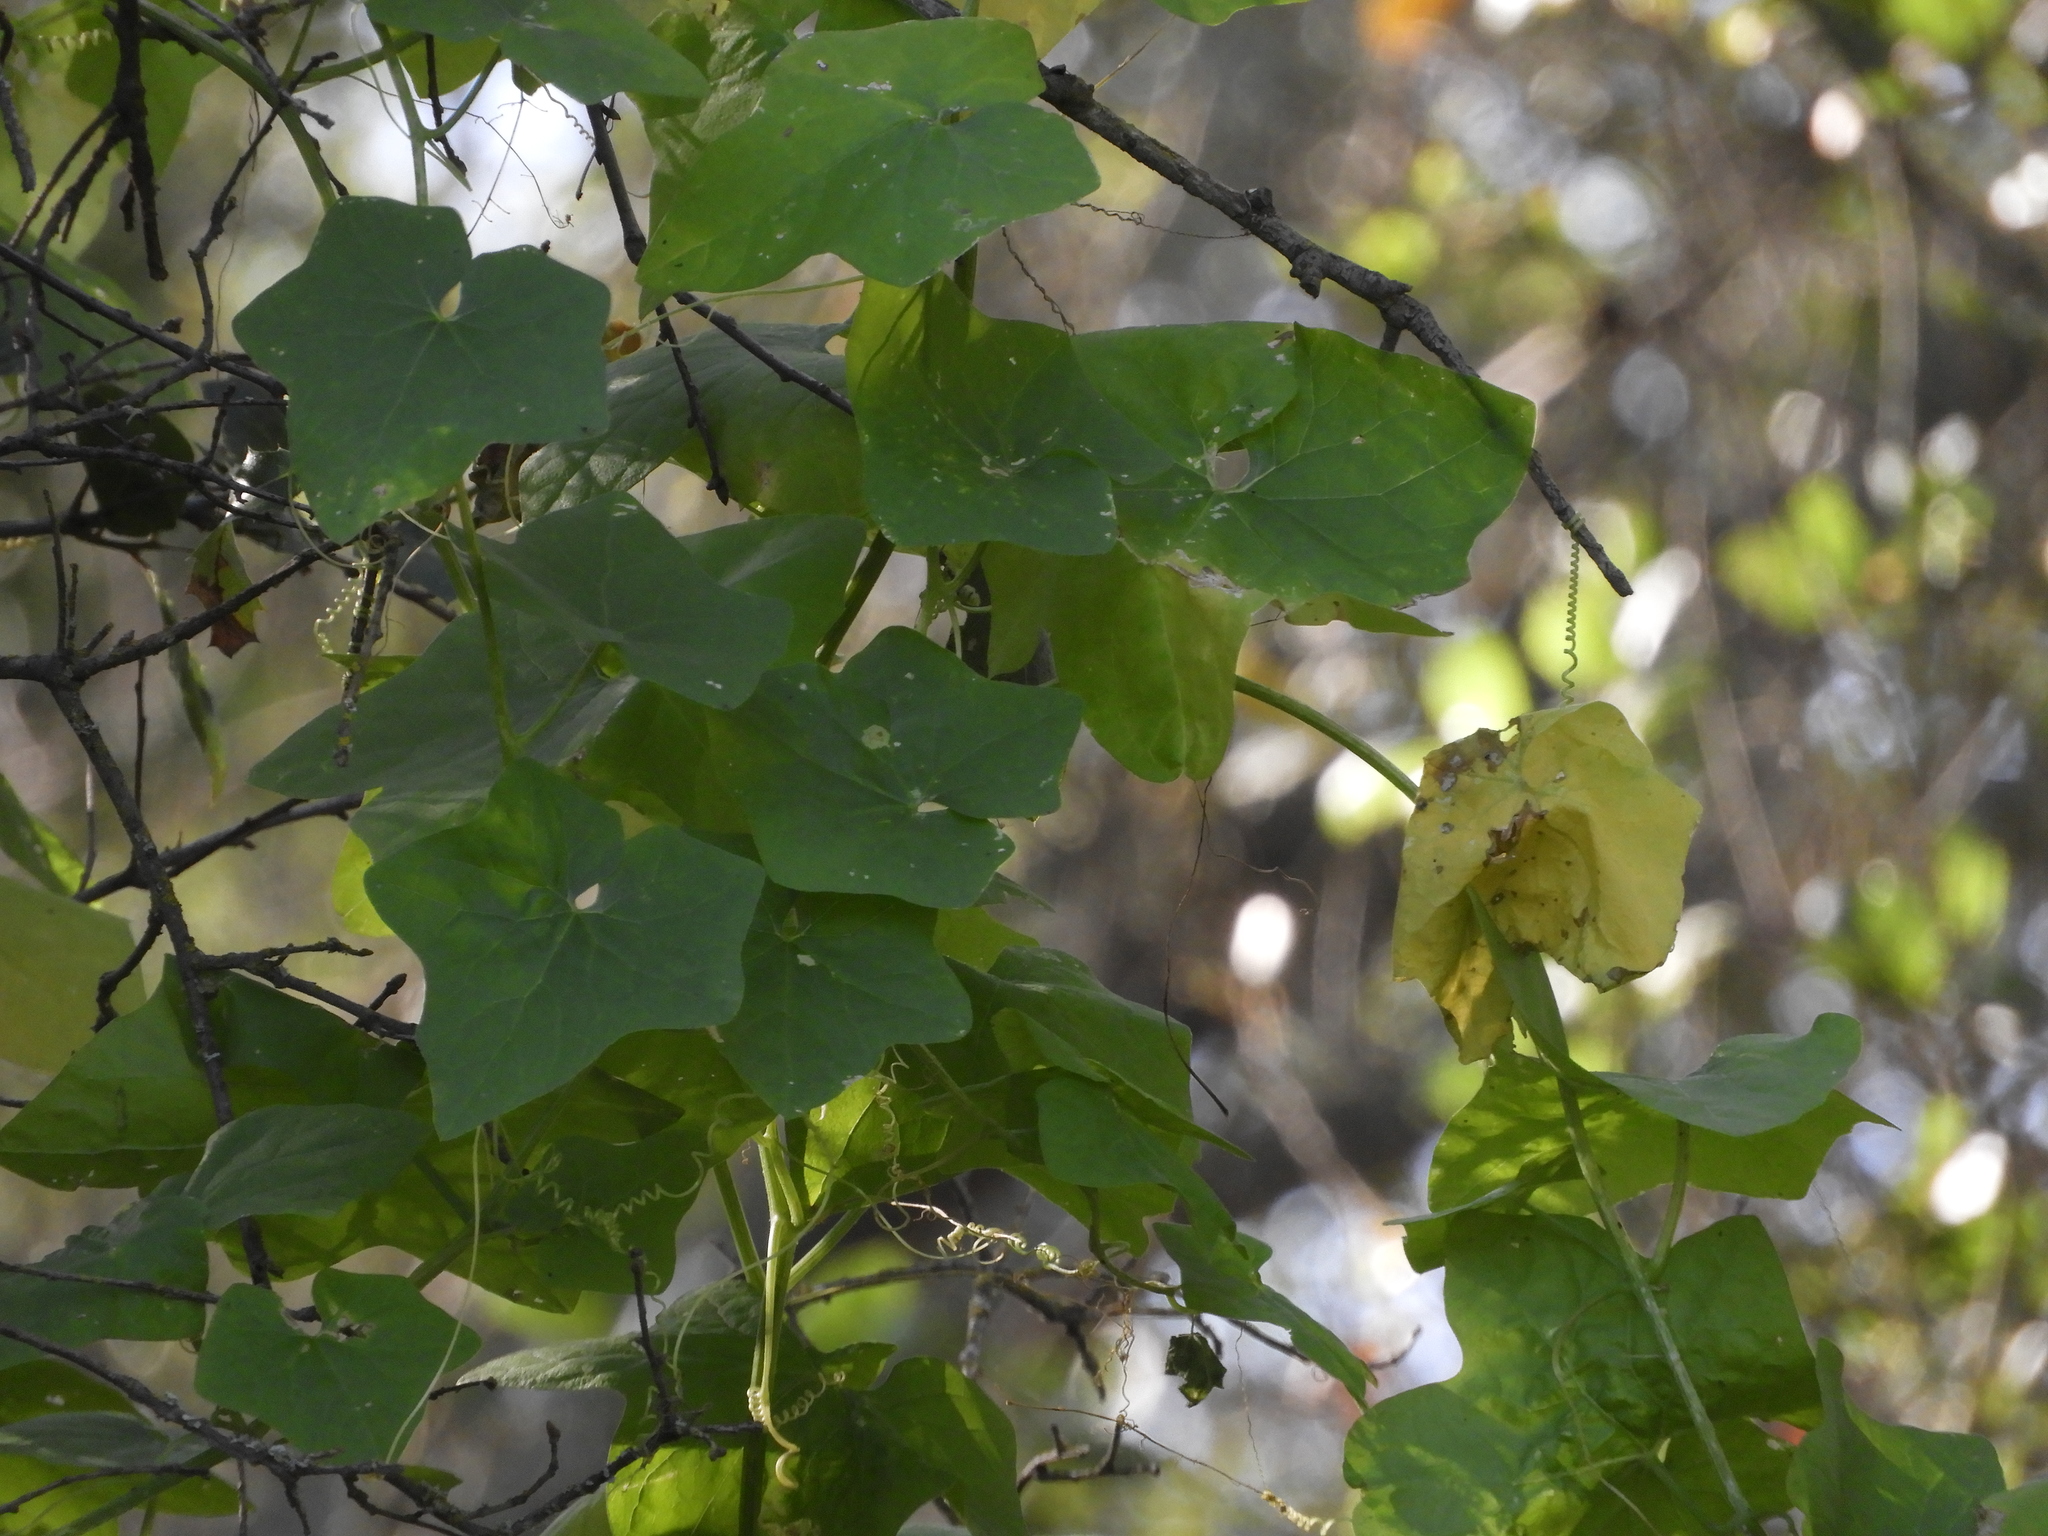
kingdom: Plantae
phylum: Tracheophyta
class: Magnoliopsida
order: Vitales
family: Vitaceae
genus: Vitis
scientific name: Vitis californica
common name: California wild grape
